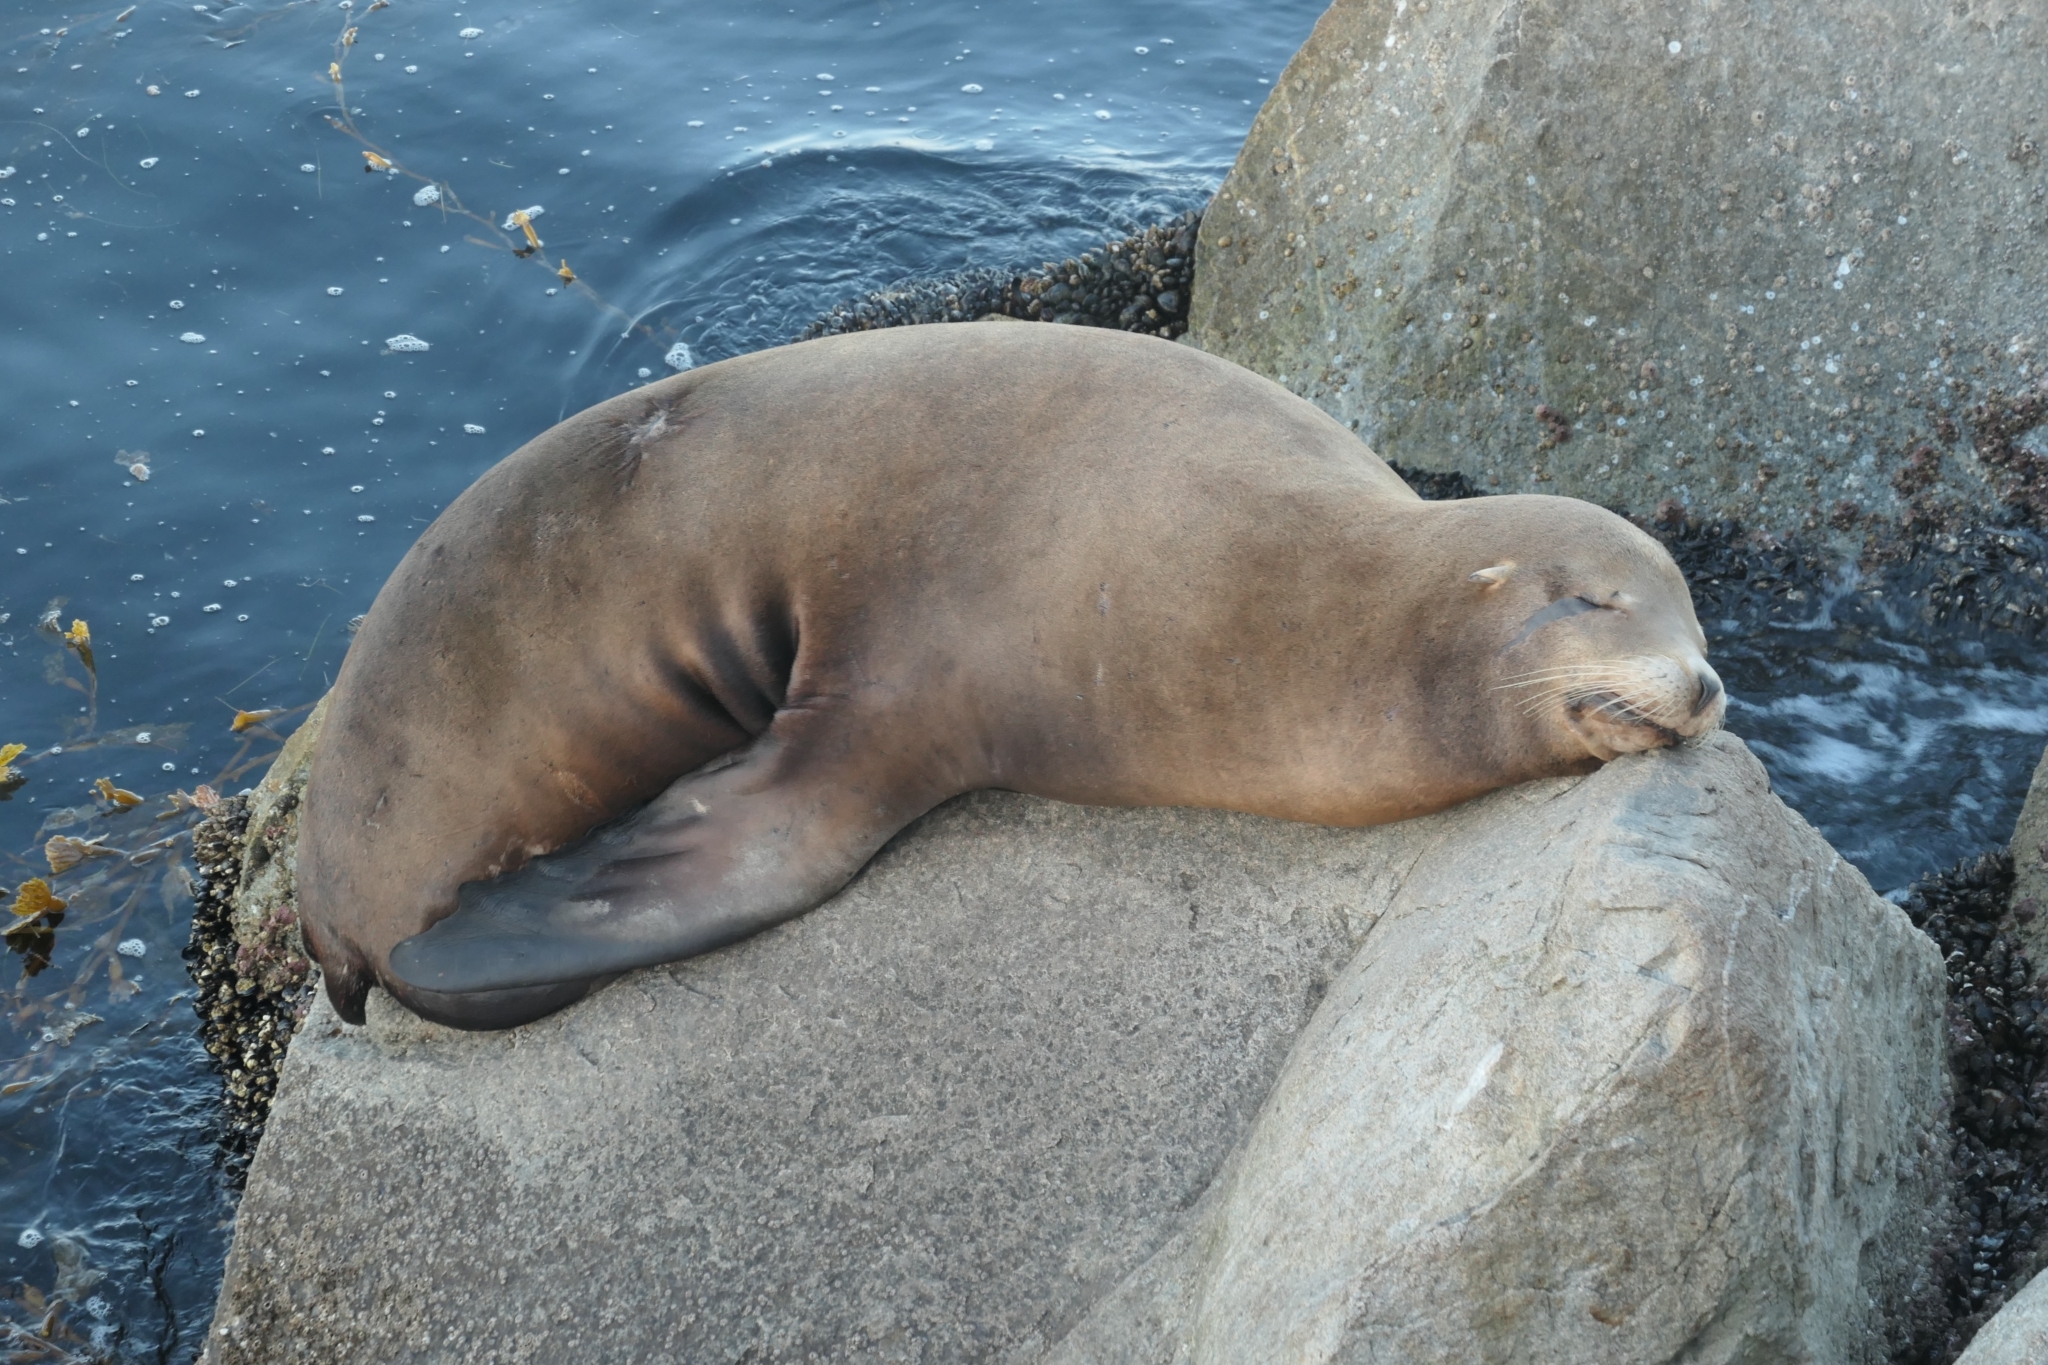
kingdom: Animalia
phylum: Chordata
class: Mammalia
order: Carnivora
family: Otariidae
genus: Zalophus
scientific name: Zalophus californianus
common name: California sea lion
